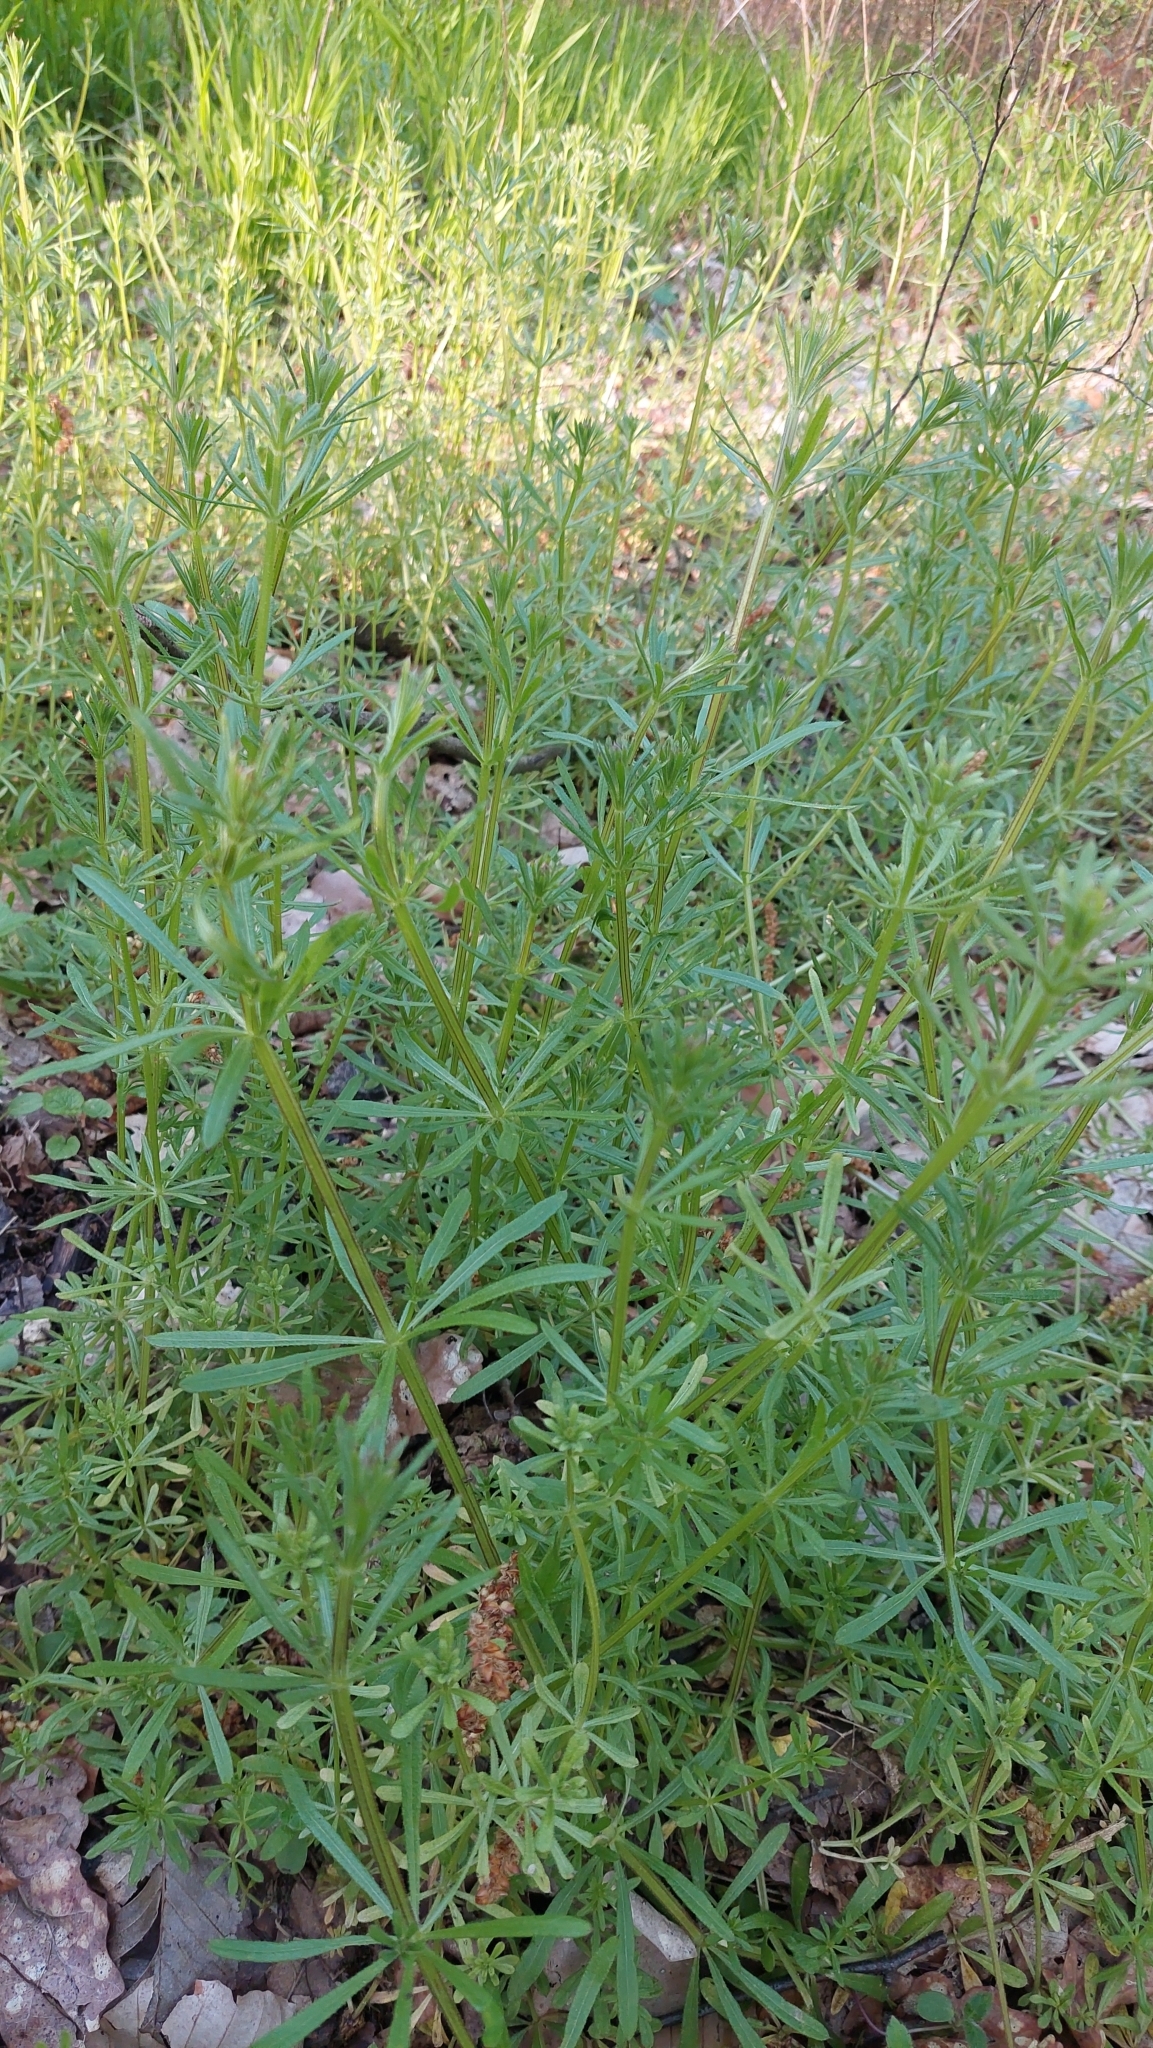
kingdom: Plantae
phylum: Tracheophyta
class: Magnoliopsida
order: Gentianales
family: Rubiaceae
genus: Galium
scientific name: Galium aparine
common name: Cleavers
